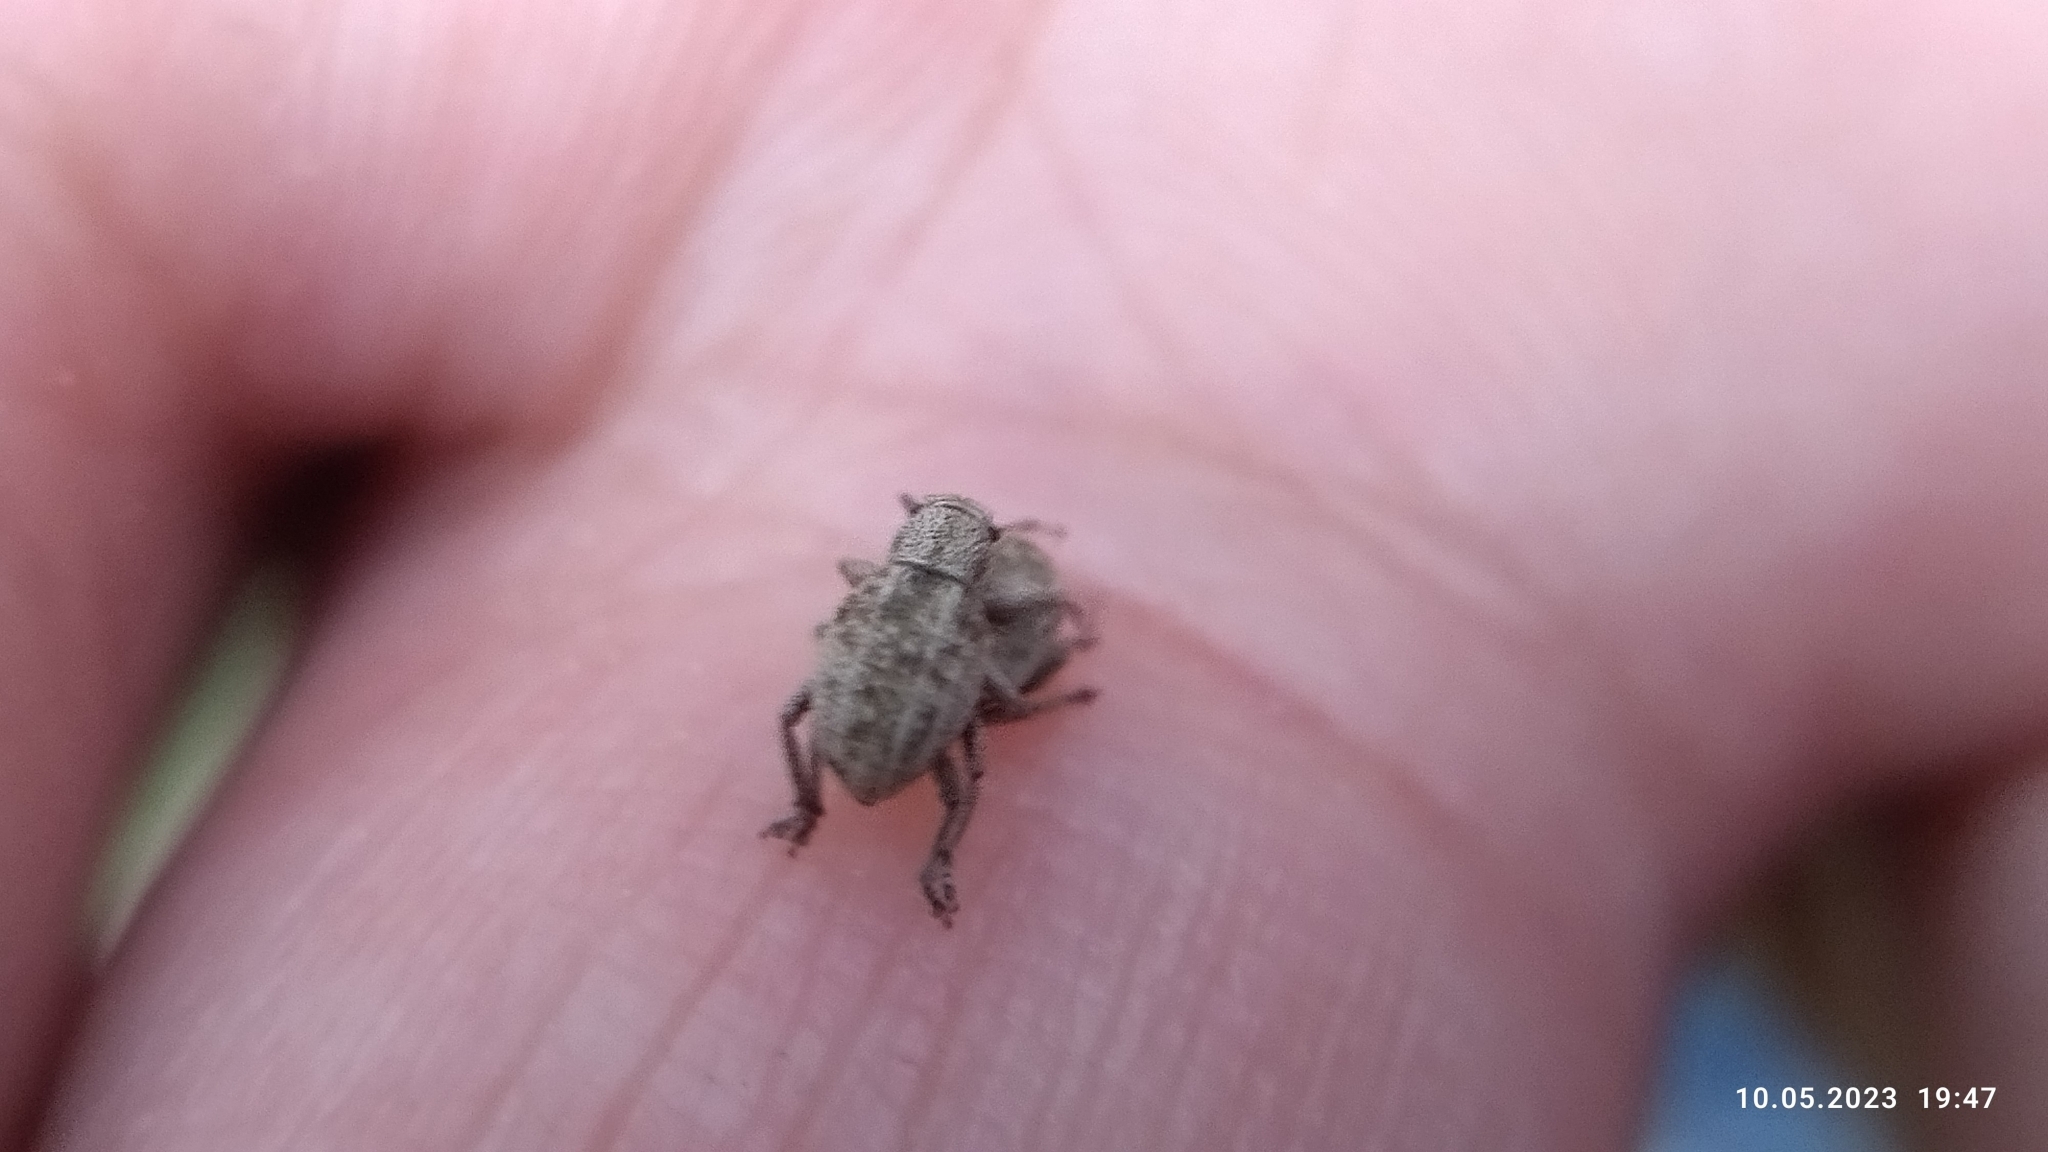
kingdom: Animalia
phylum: Arthropoda
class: Insecta
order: Coleoptera
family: Curculionidae
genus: Strophosoma
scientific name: Strophosoma capitatum
